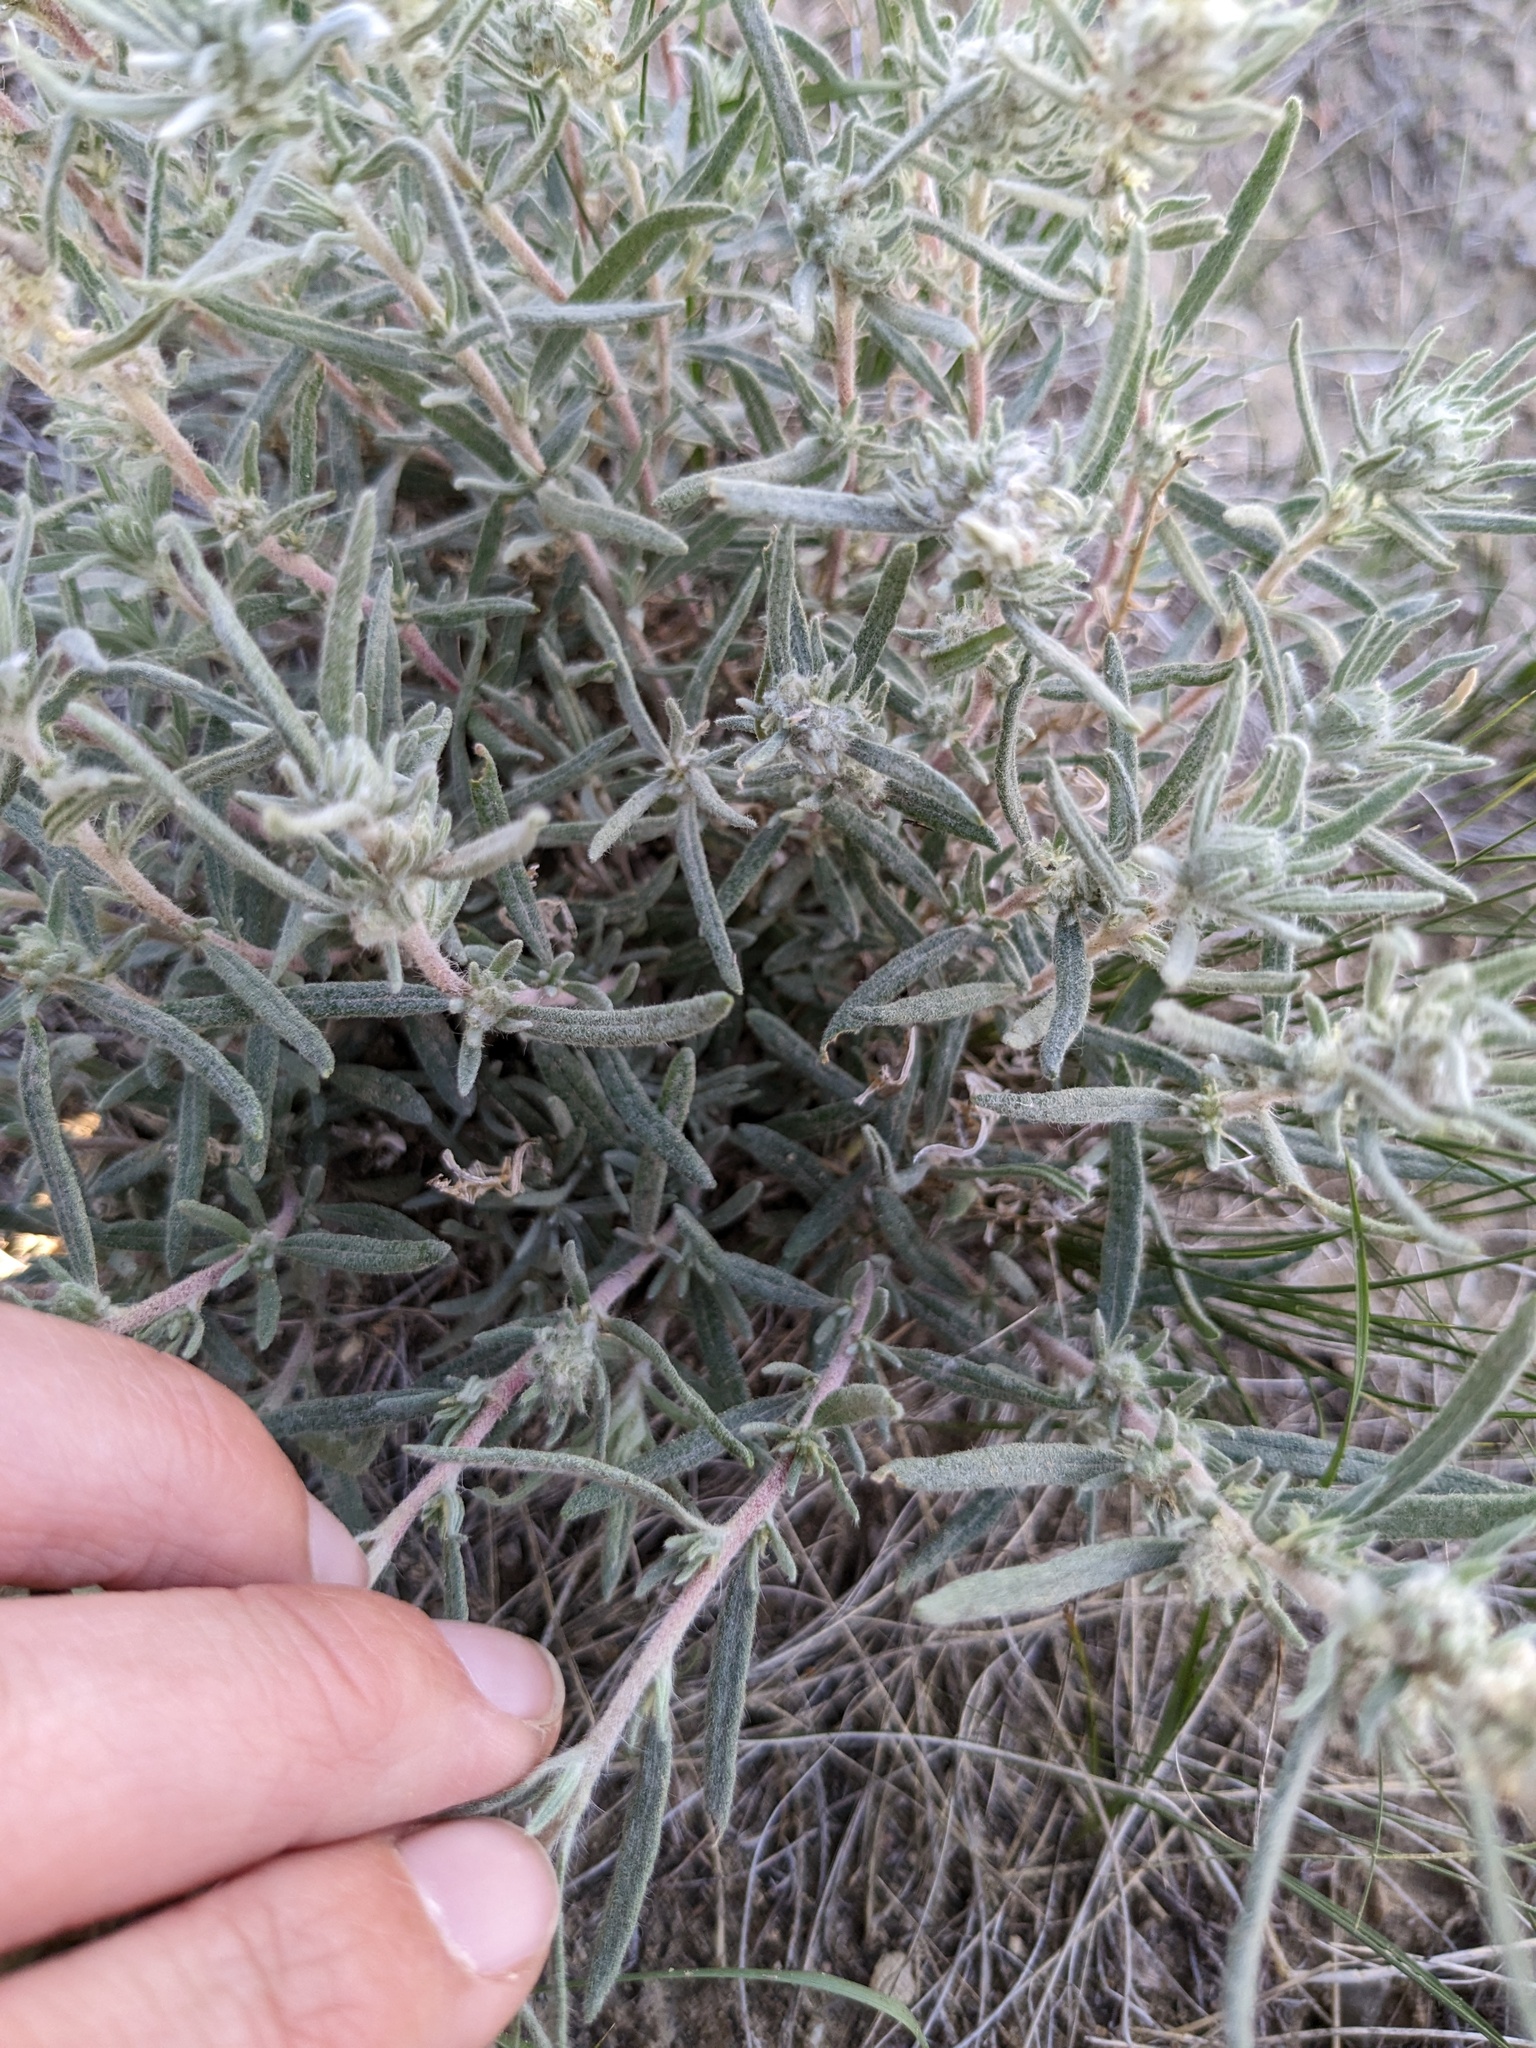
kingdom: Plantae
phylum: Tracheophyta
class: Magnoliopsida
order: Caryophyllales
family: Amaranthaceae
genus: Krascheninnikovia
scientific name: Krascheninnikovia lanata
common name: Winterfat
